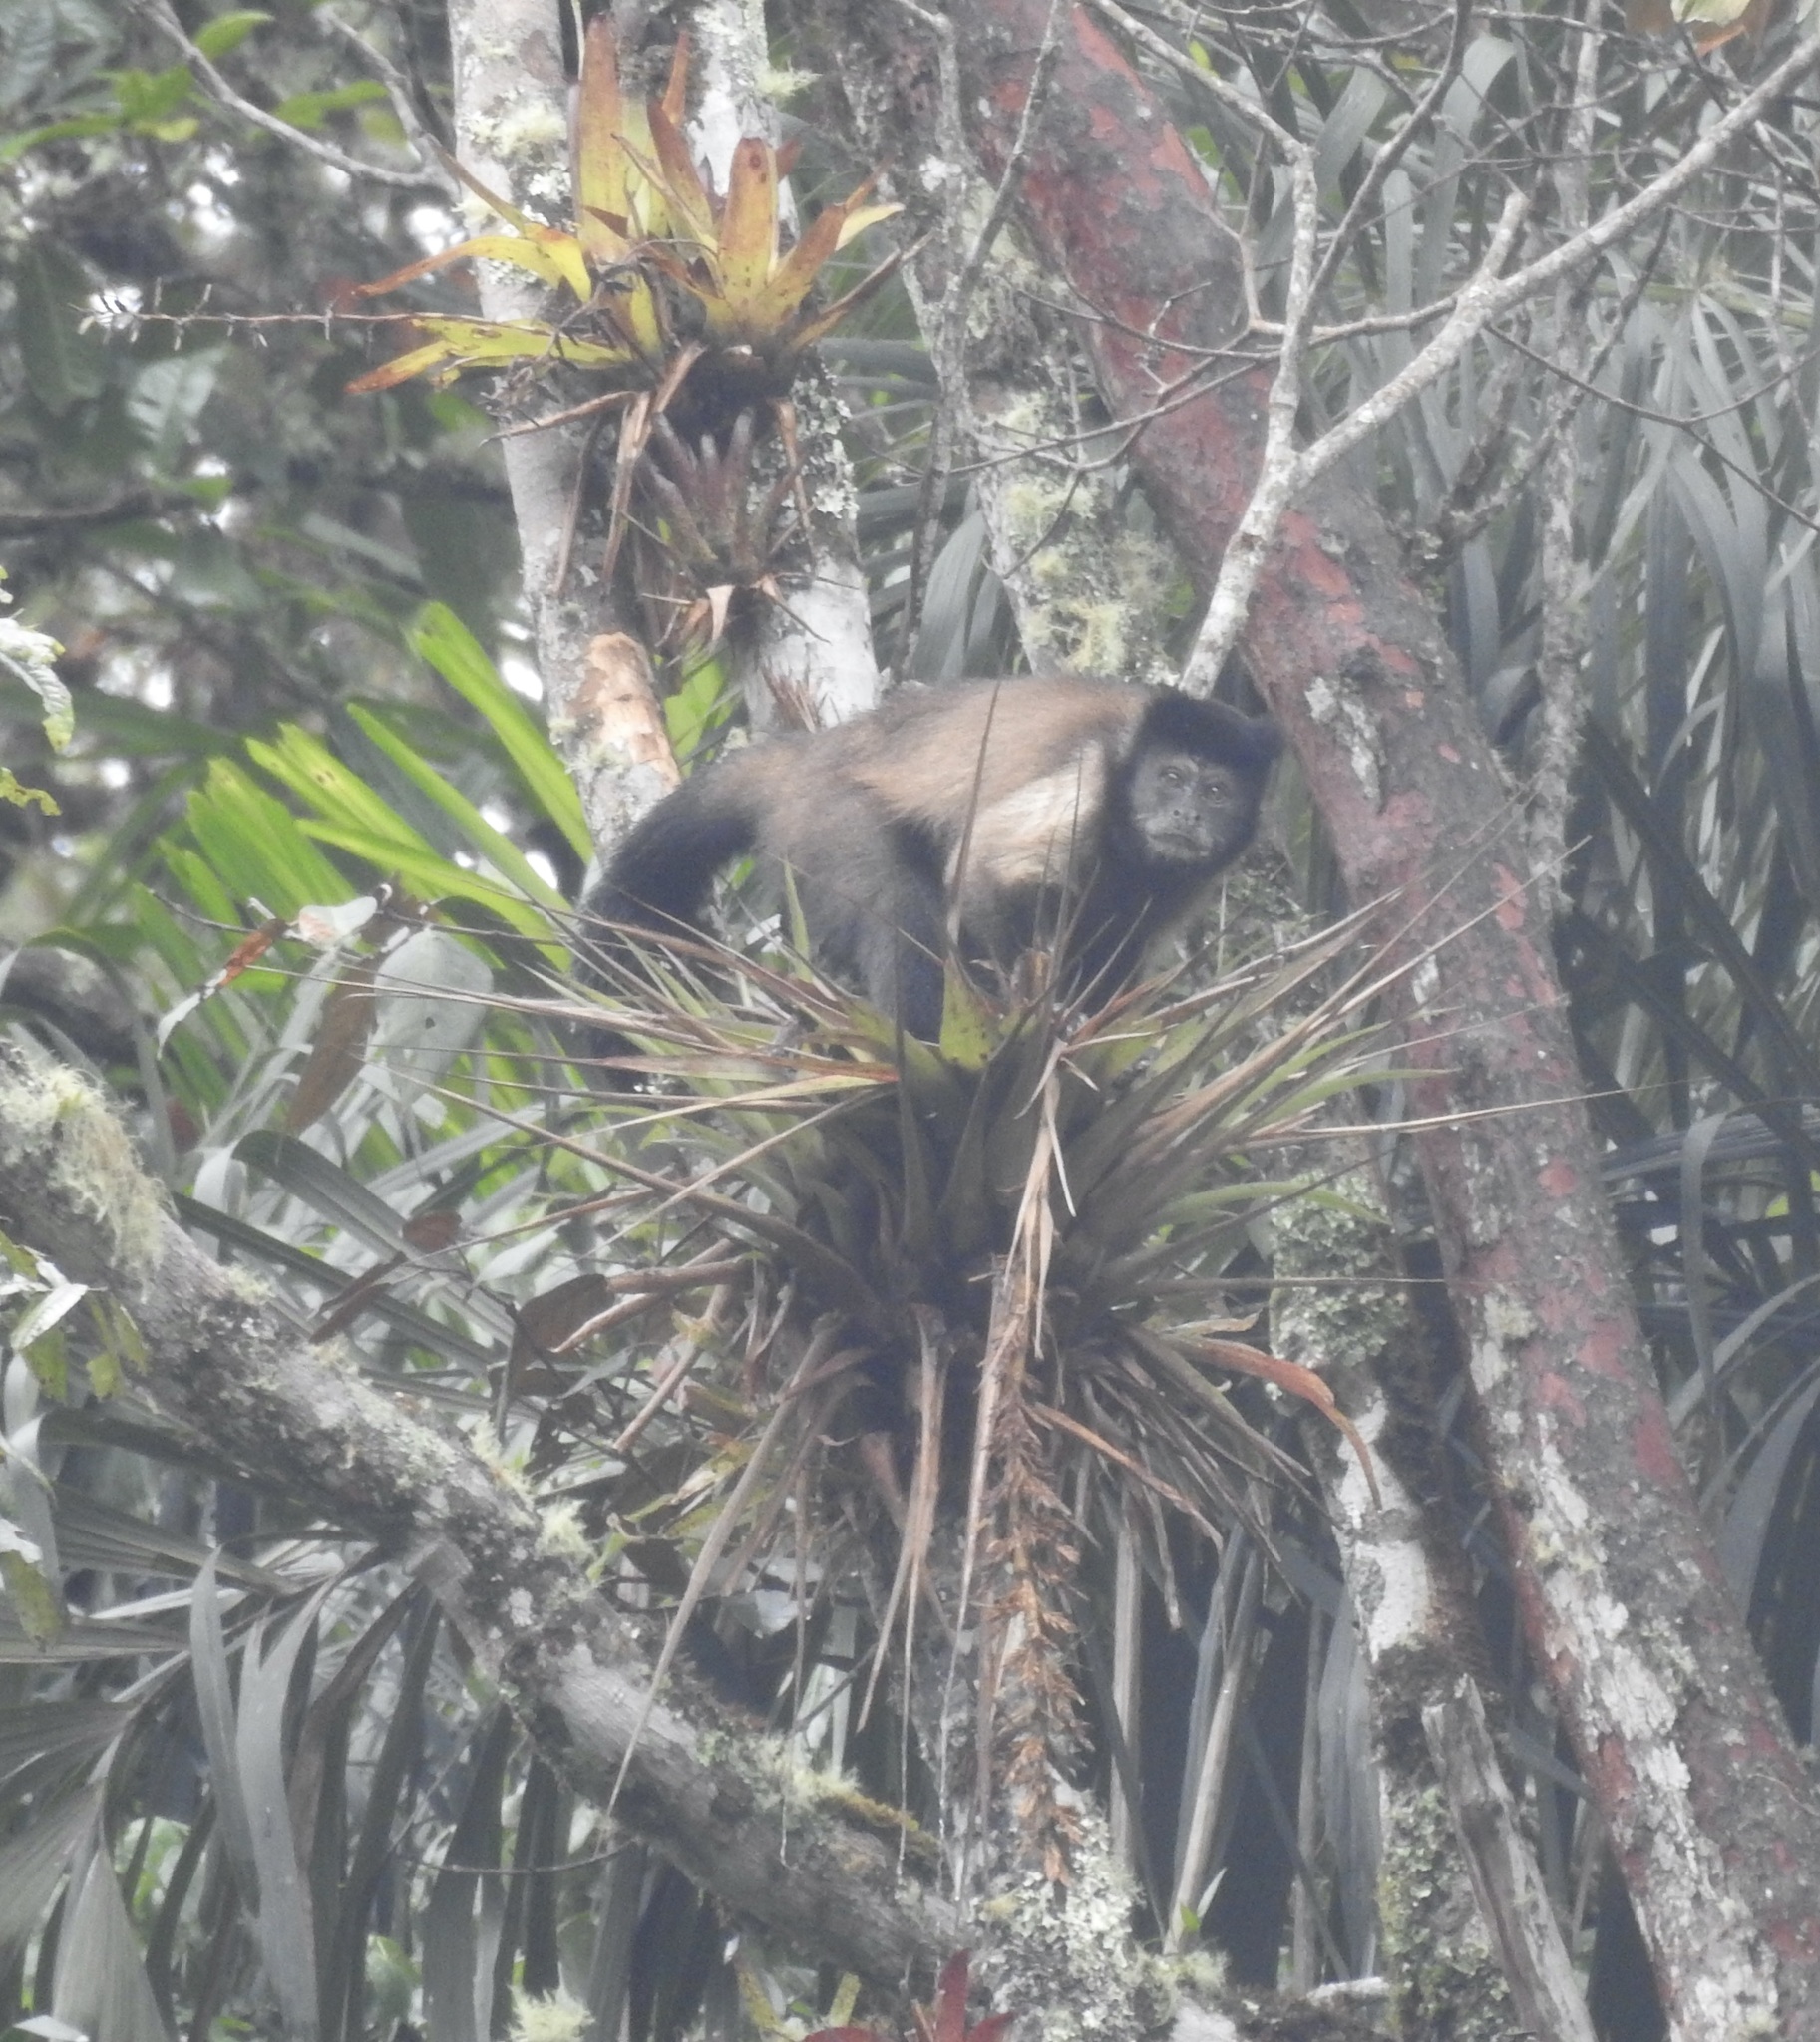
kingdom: Animalia
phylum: Chordata
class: Mammalia
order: Primates
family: Cebidae
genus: Sapajus
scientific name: Sapajus apella
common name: Tufted capuchin
